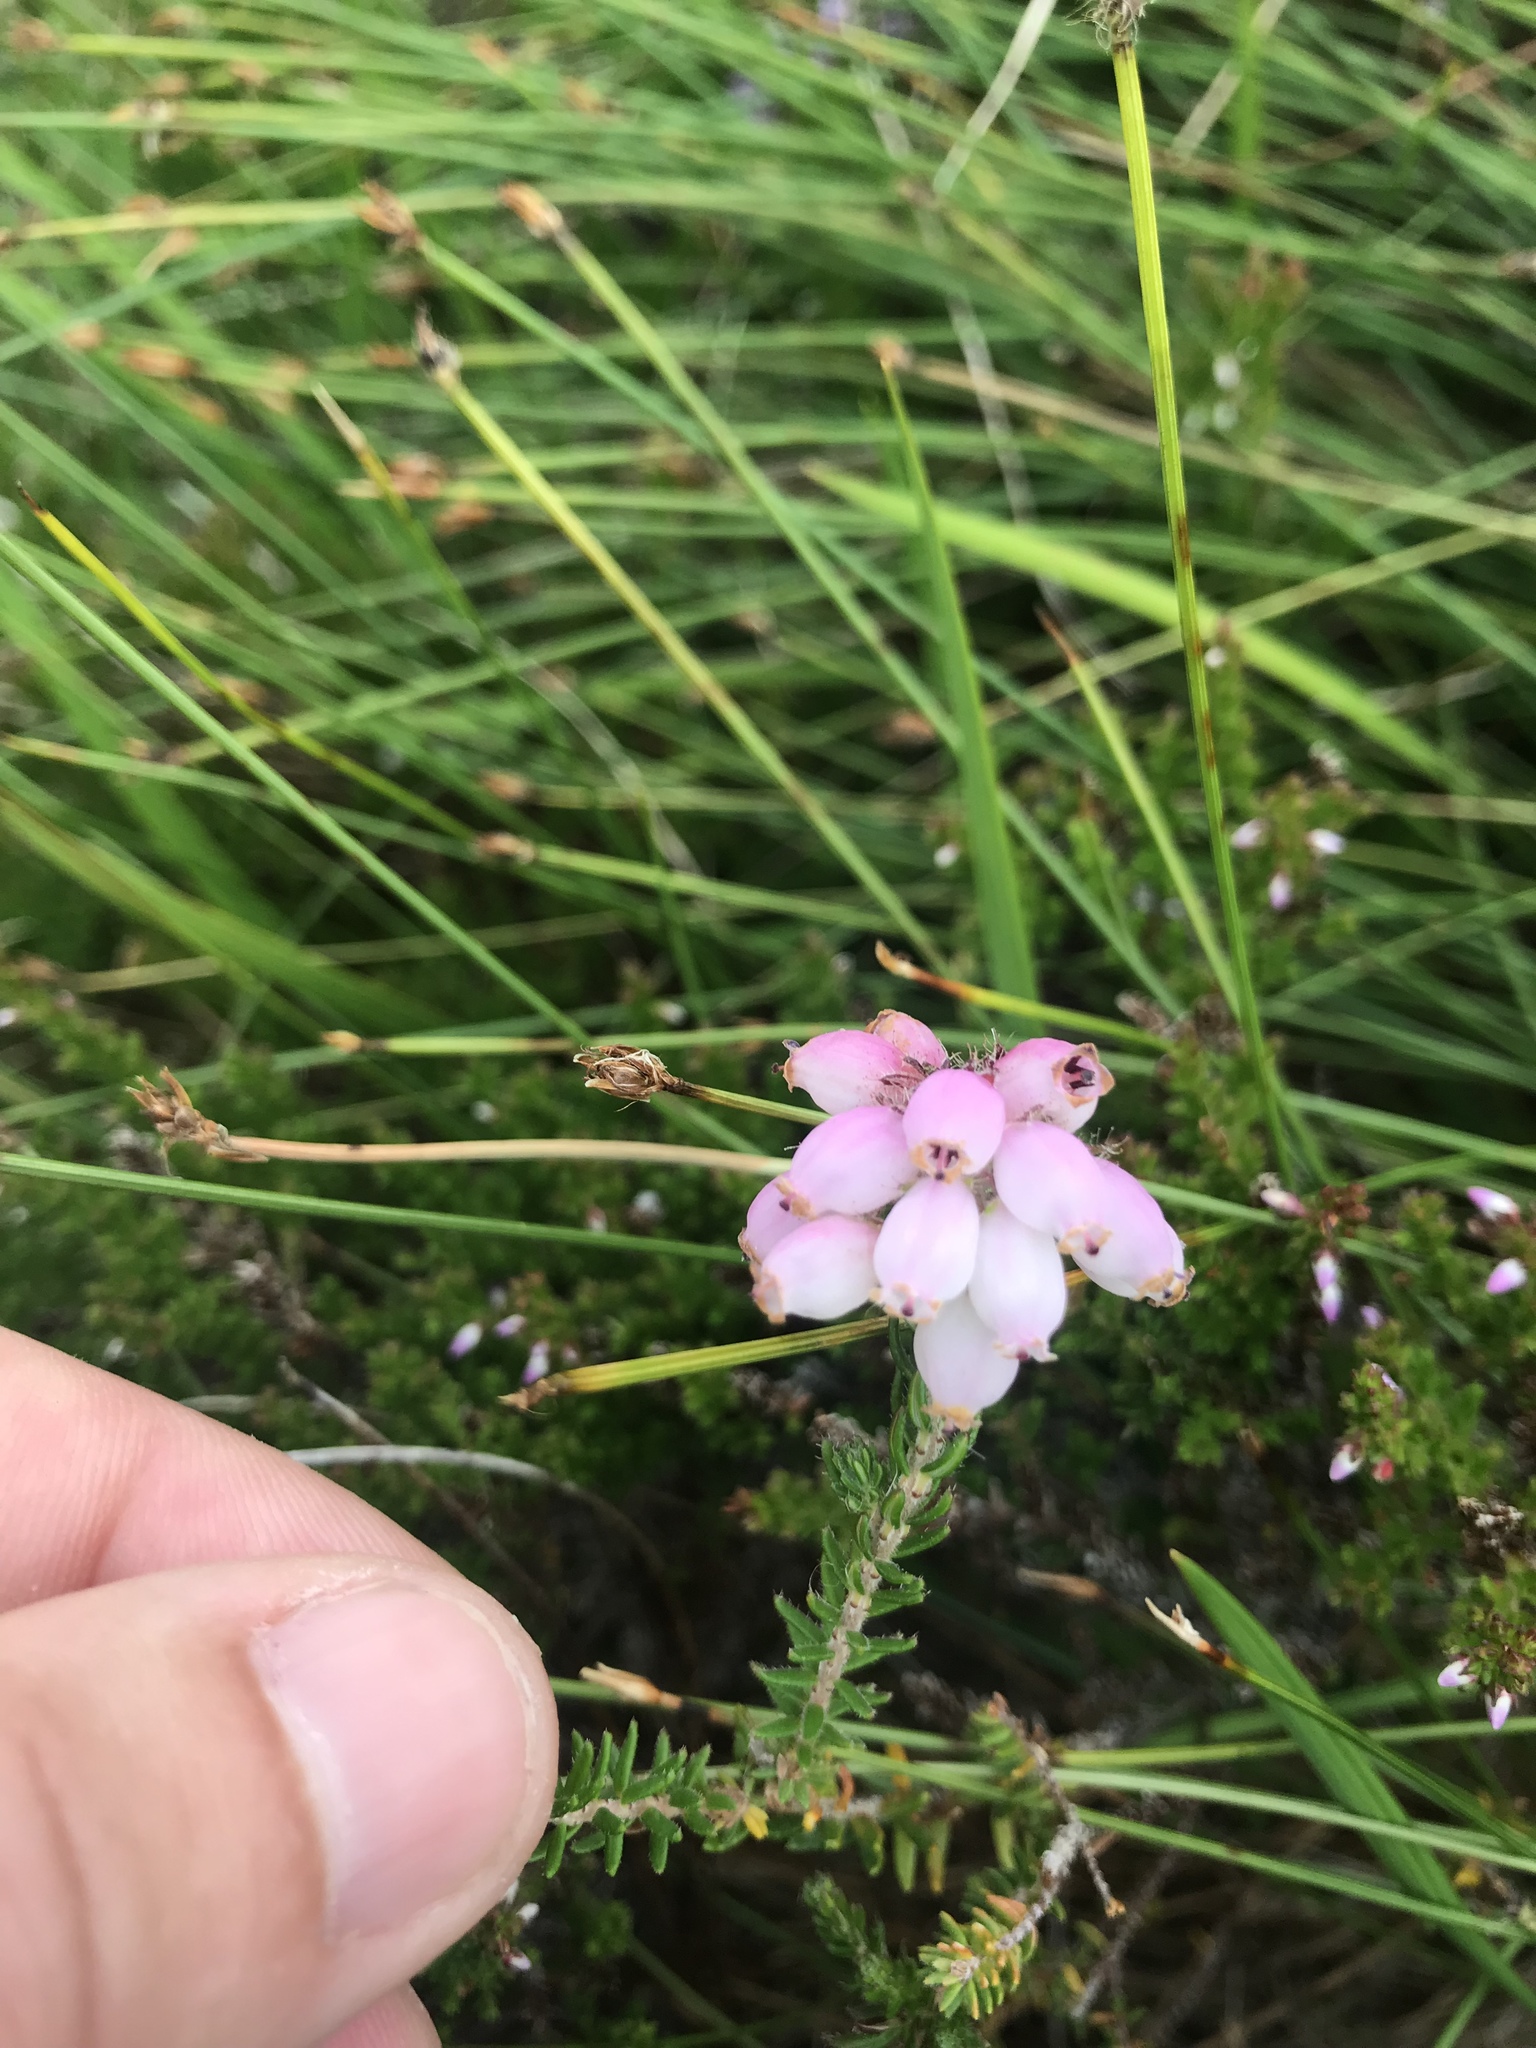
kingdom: Plantae
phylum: Tracheophyta
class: Magnoliopsida
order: Ericales
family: Ericaceae
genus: Erica
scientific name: Erica tetralix
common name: Cross-leaved heath
